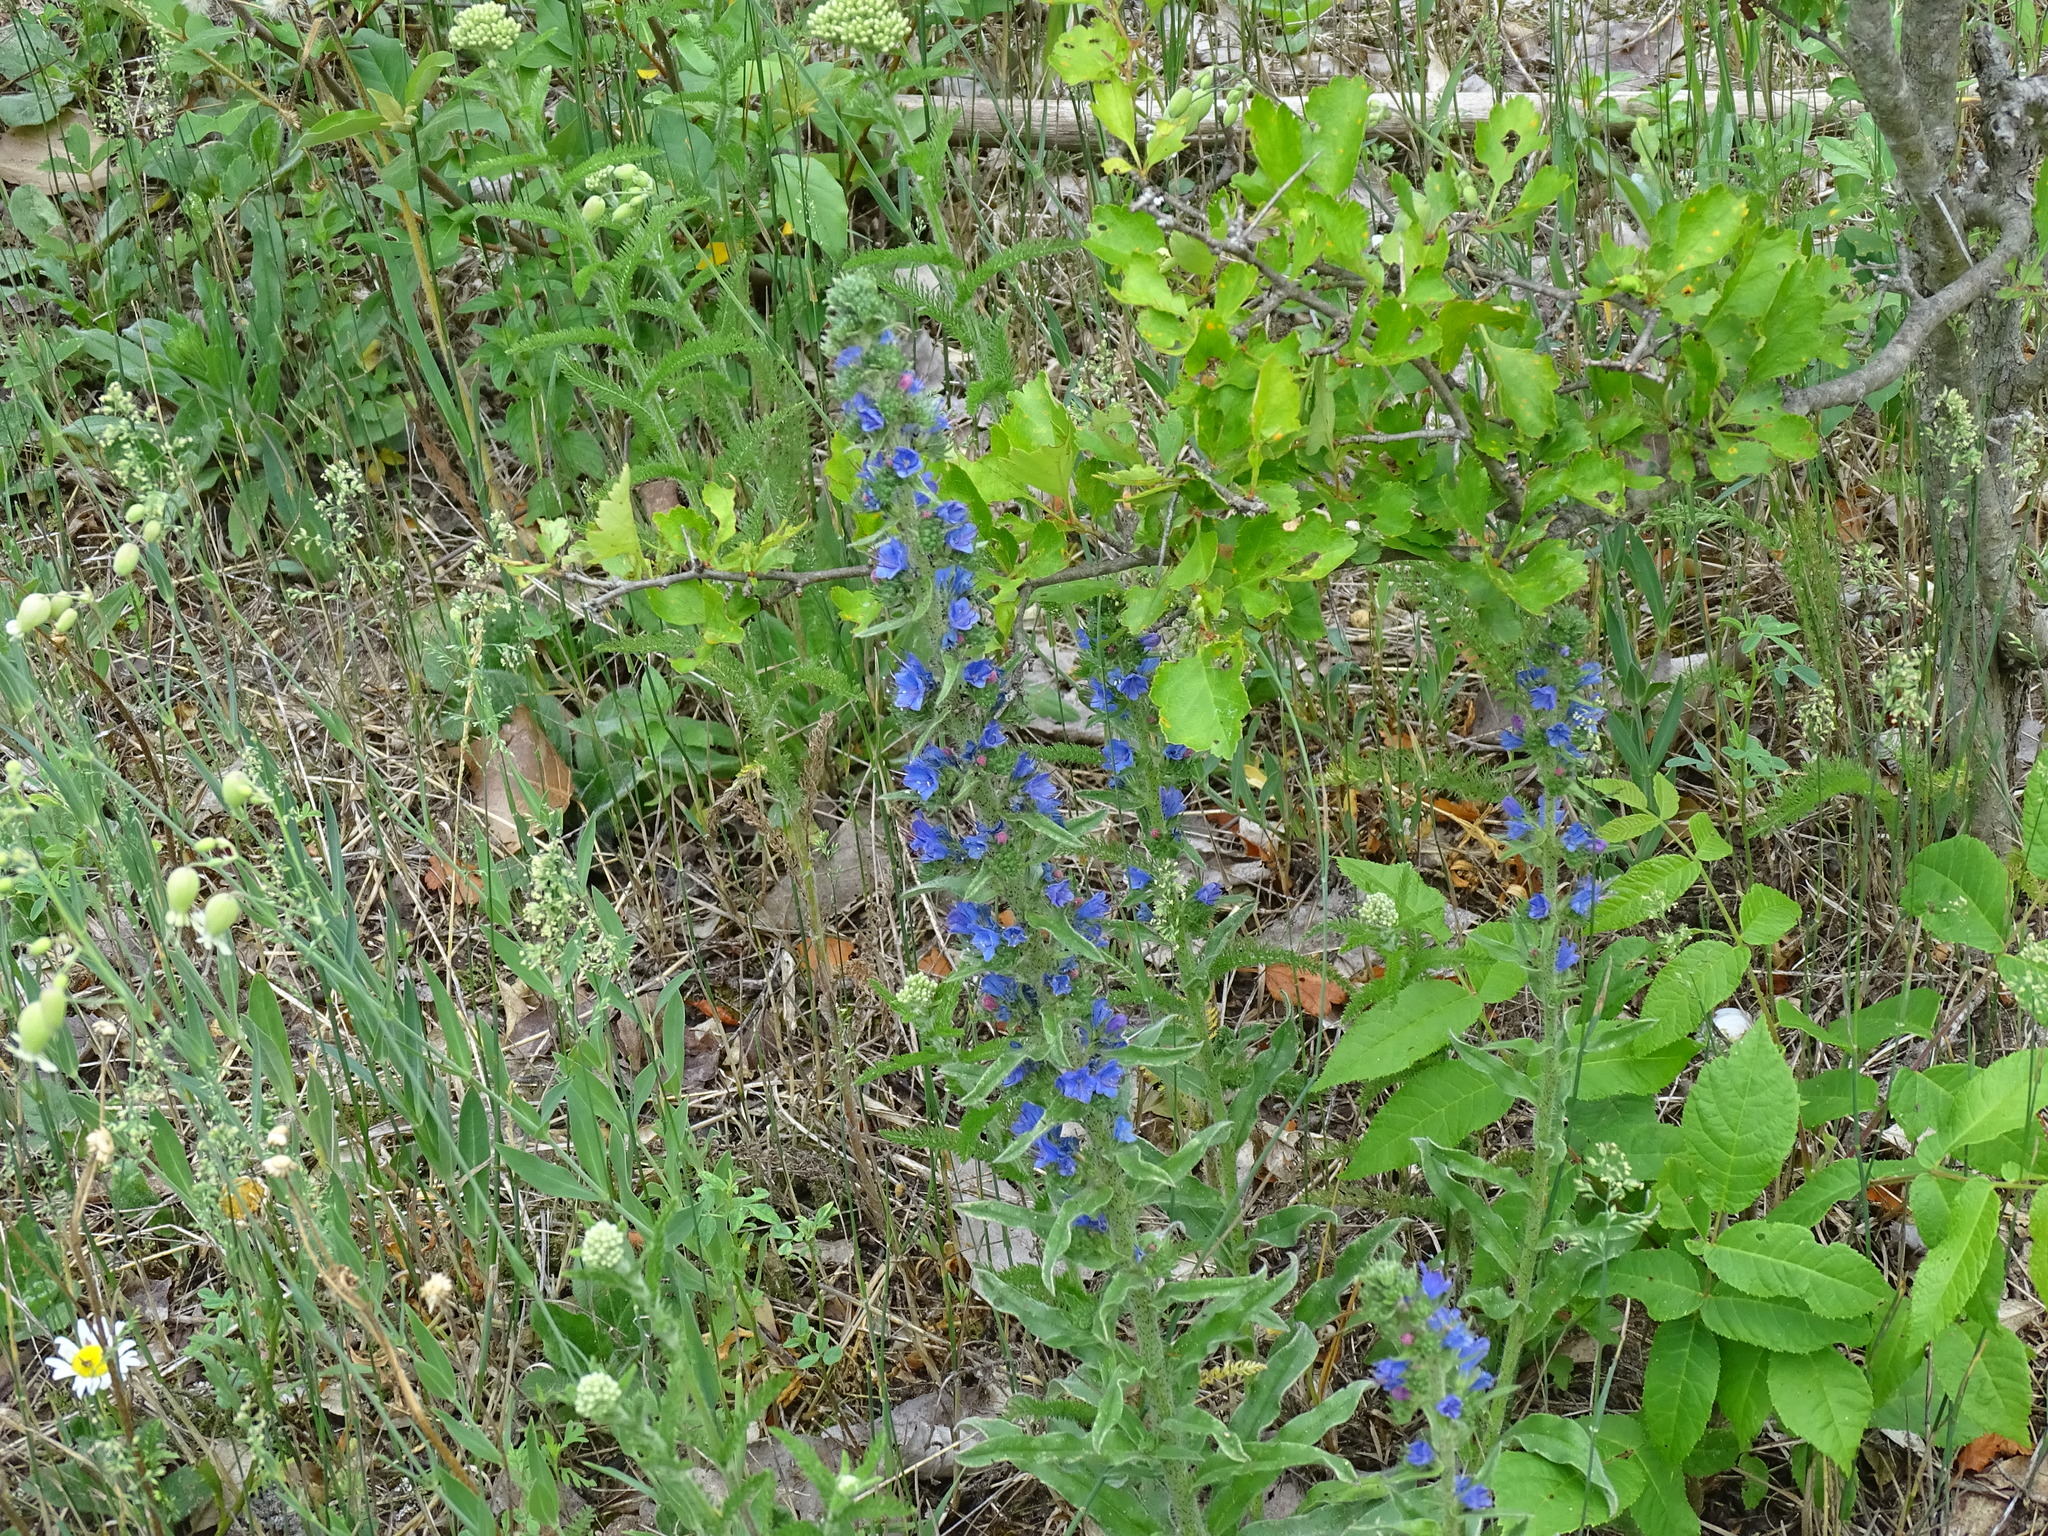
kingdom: Plantae
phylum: Tracheophyta
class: Magnoliopsida
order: Boraginales
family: Boraginaceae
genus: Echium
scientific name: Echium vulgare
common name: Common viper's bugloss
